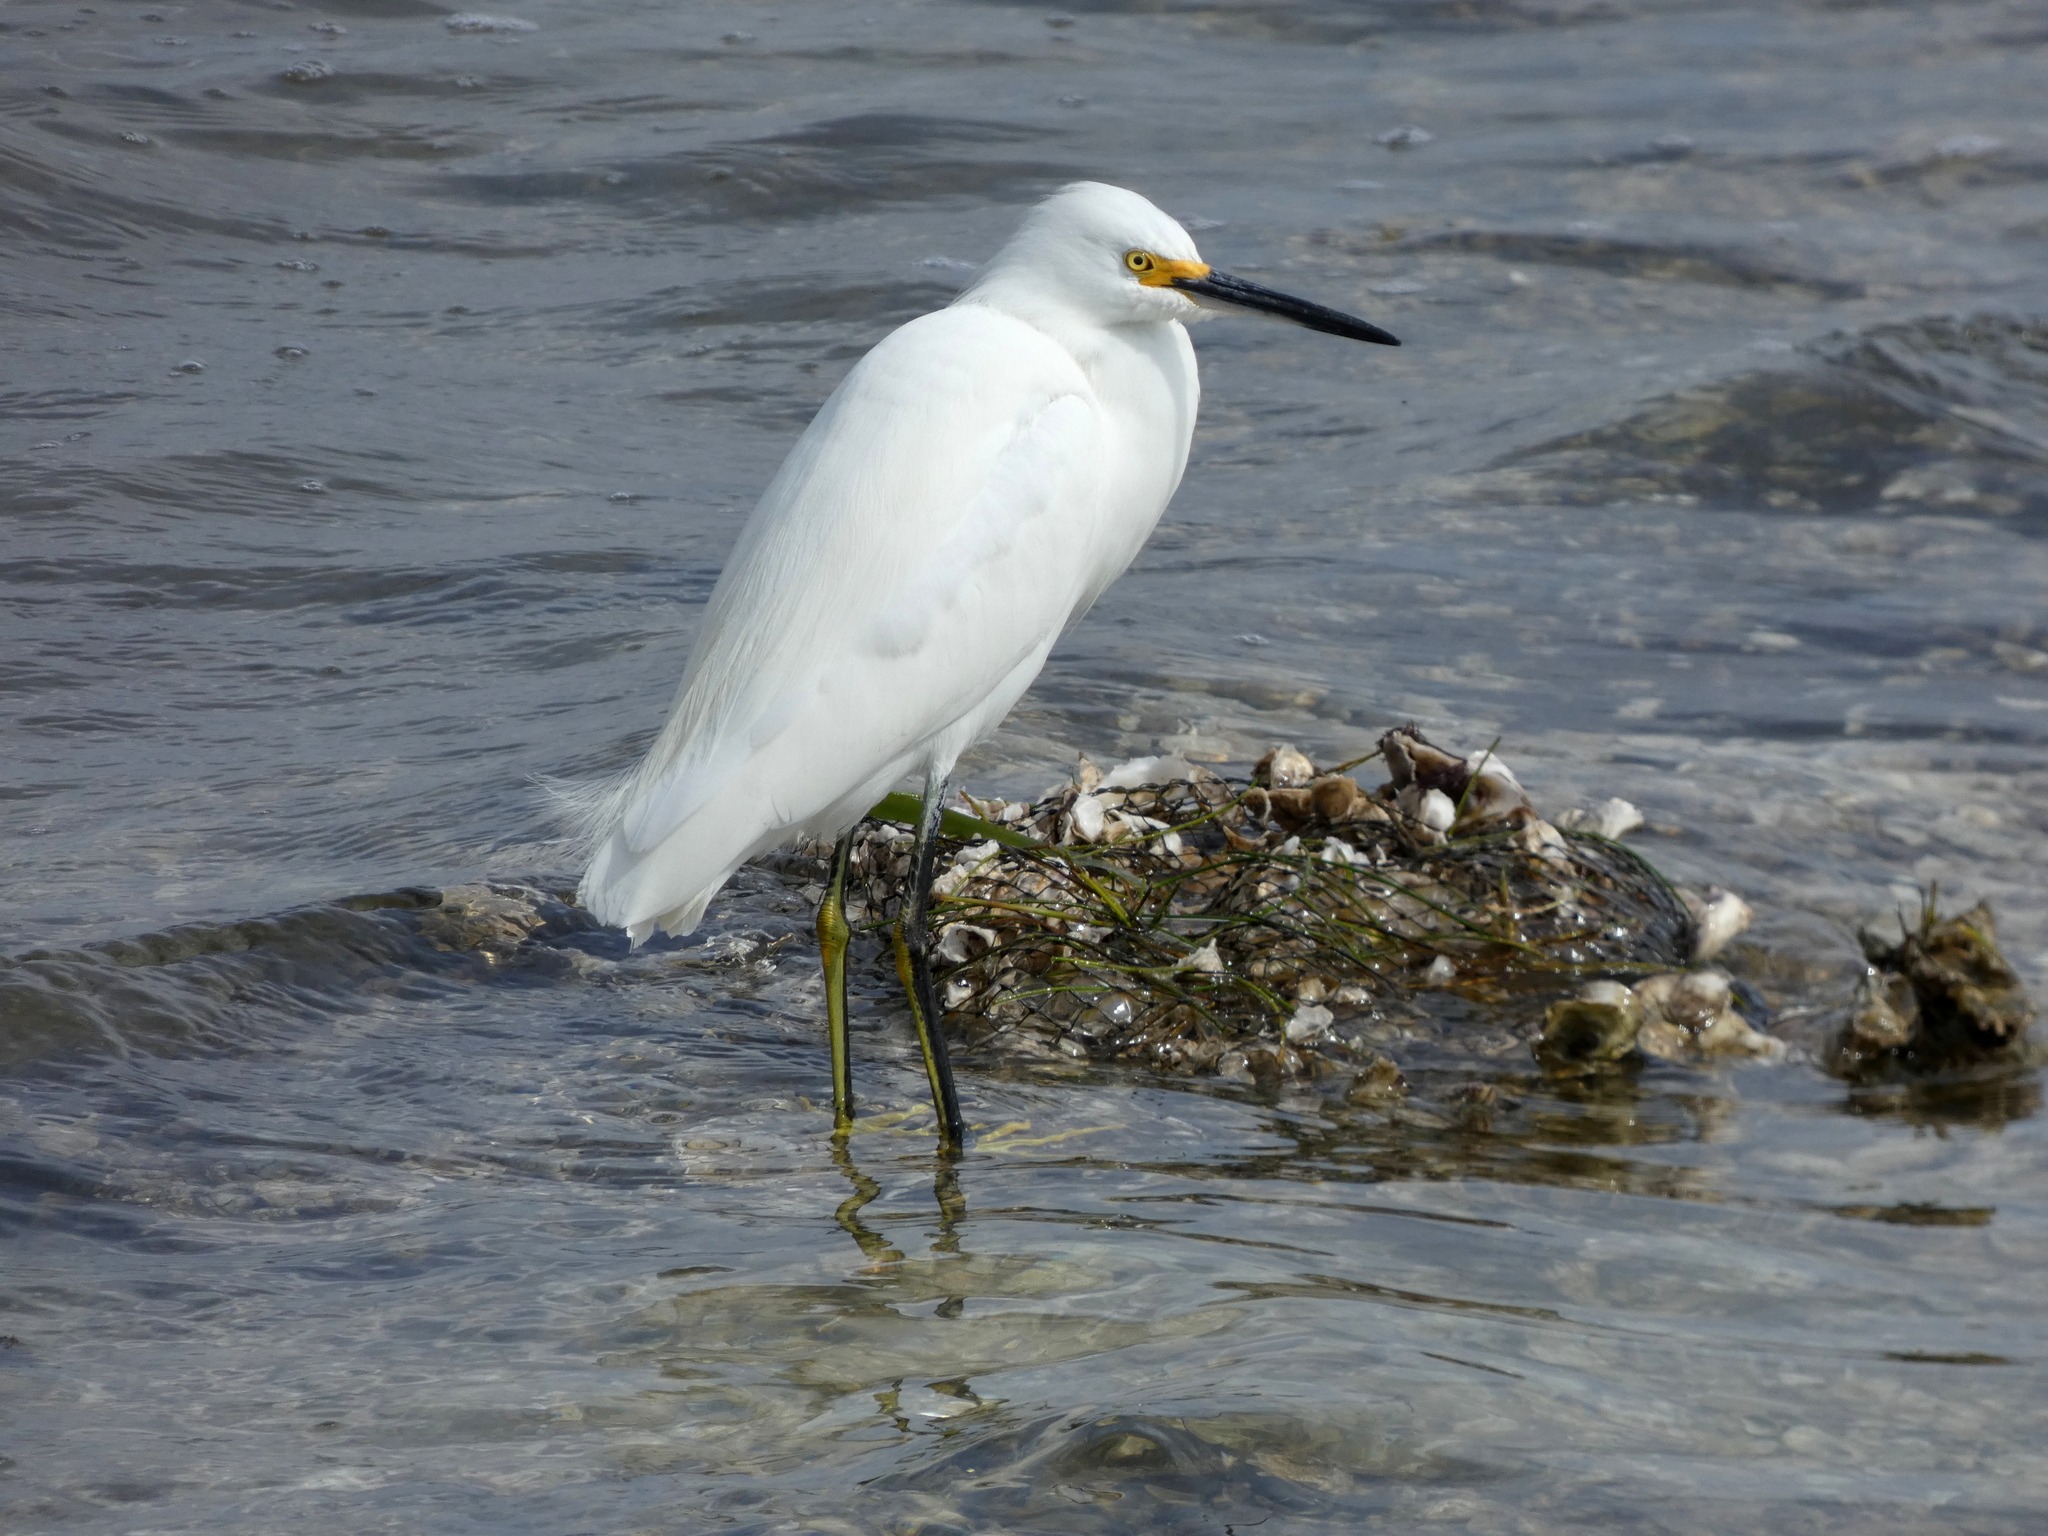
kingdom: Animalia
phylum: Chordata
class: Aves
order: Pelecaniformes
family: Ardeidae
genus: Egretta
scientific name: Egretta thula
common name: Snowy egret
